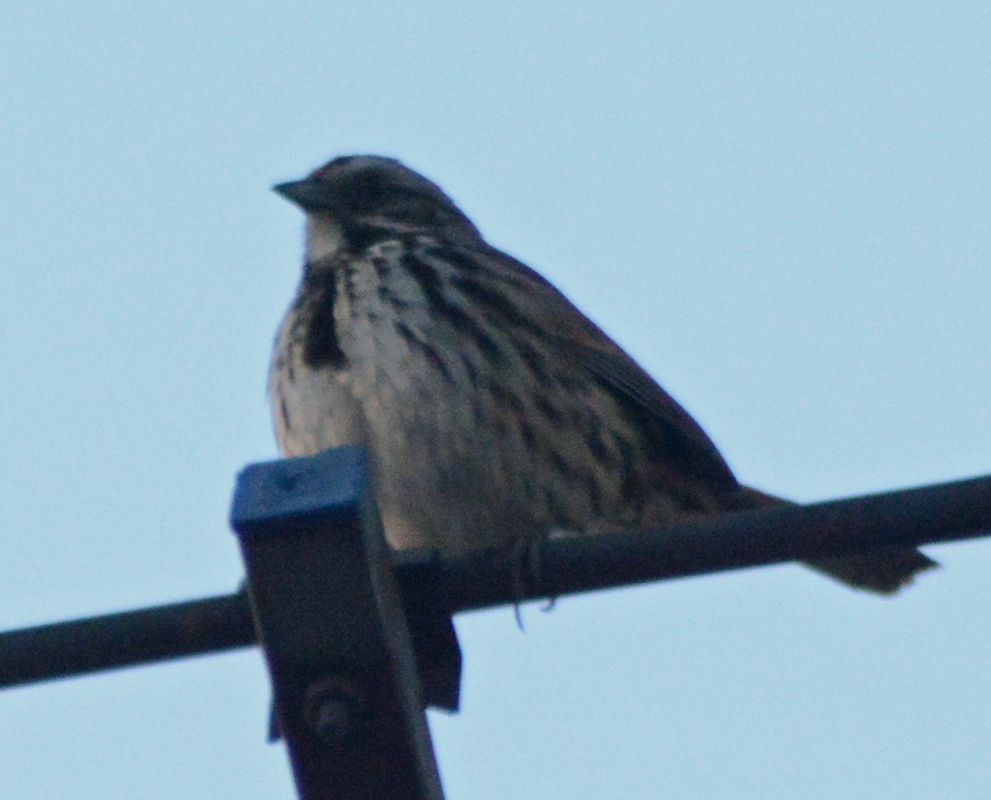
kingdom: Animalia
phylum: Chordata
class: Aves
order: Passeriformes
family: Passerellidae
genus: Melospiza
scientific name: Melospiza melodia
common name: Song sparrow
